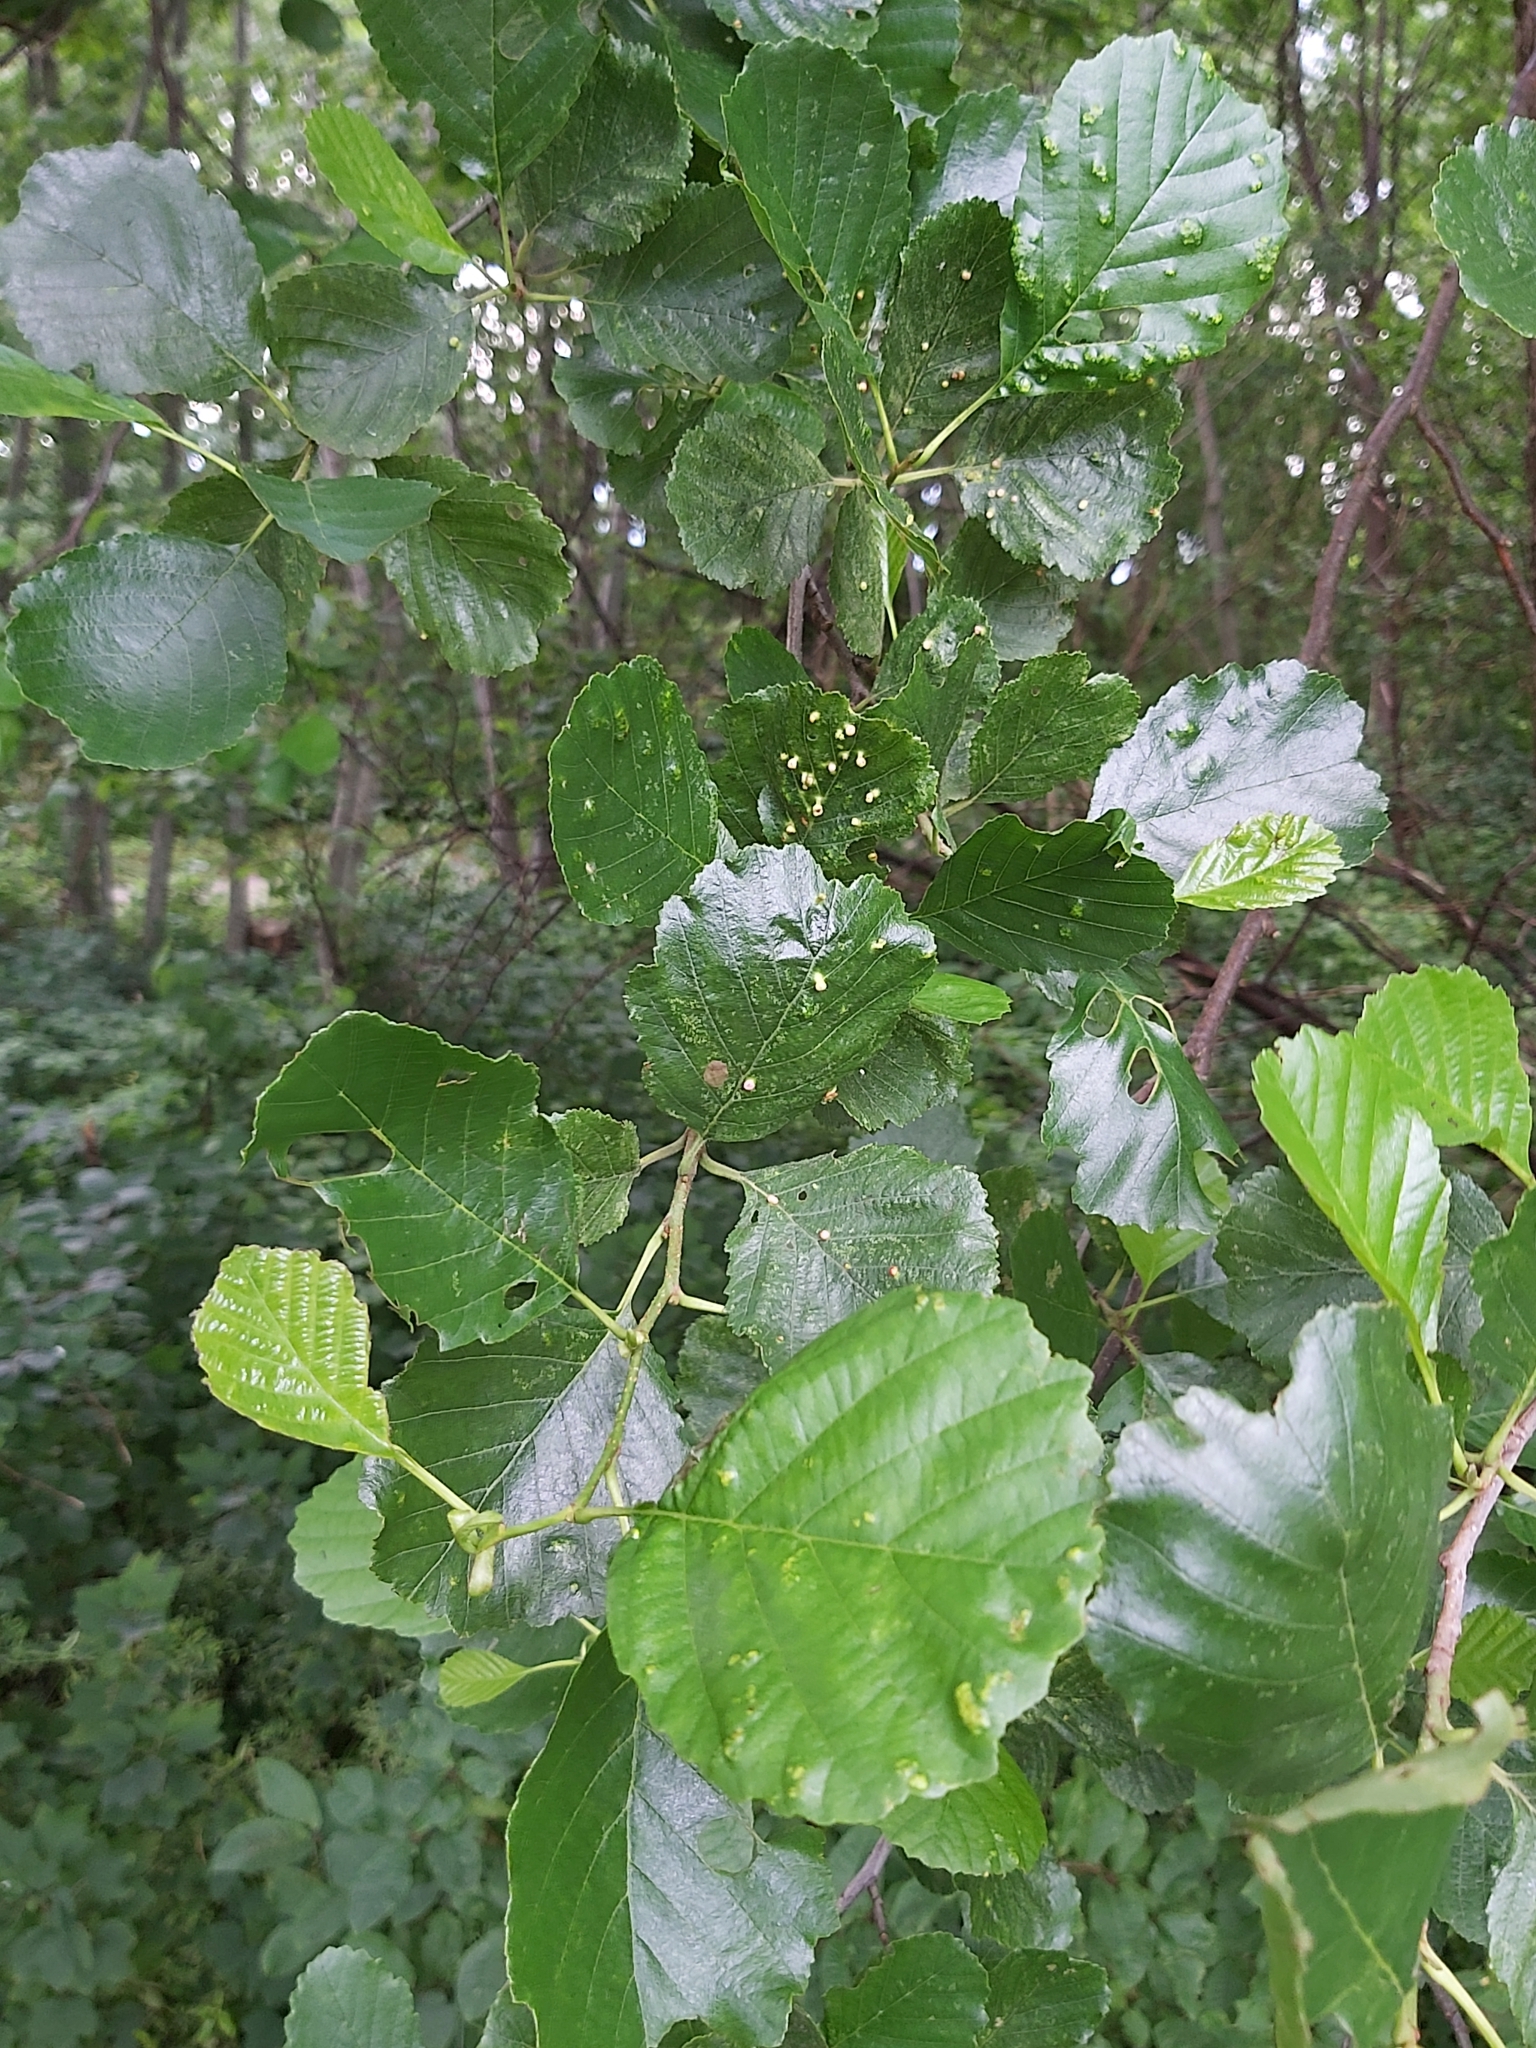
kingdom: Animalia
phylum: Arthropoda
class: Arachnida
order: Trombidiformes
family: Eriophyidae
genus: Eriophyes
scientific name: Eriophyes laevis
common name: Alder leaf gall mite
